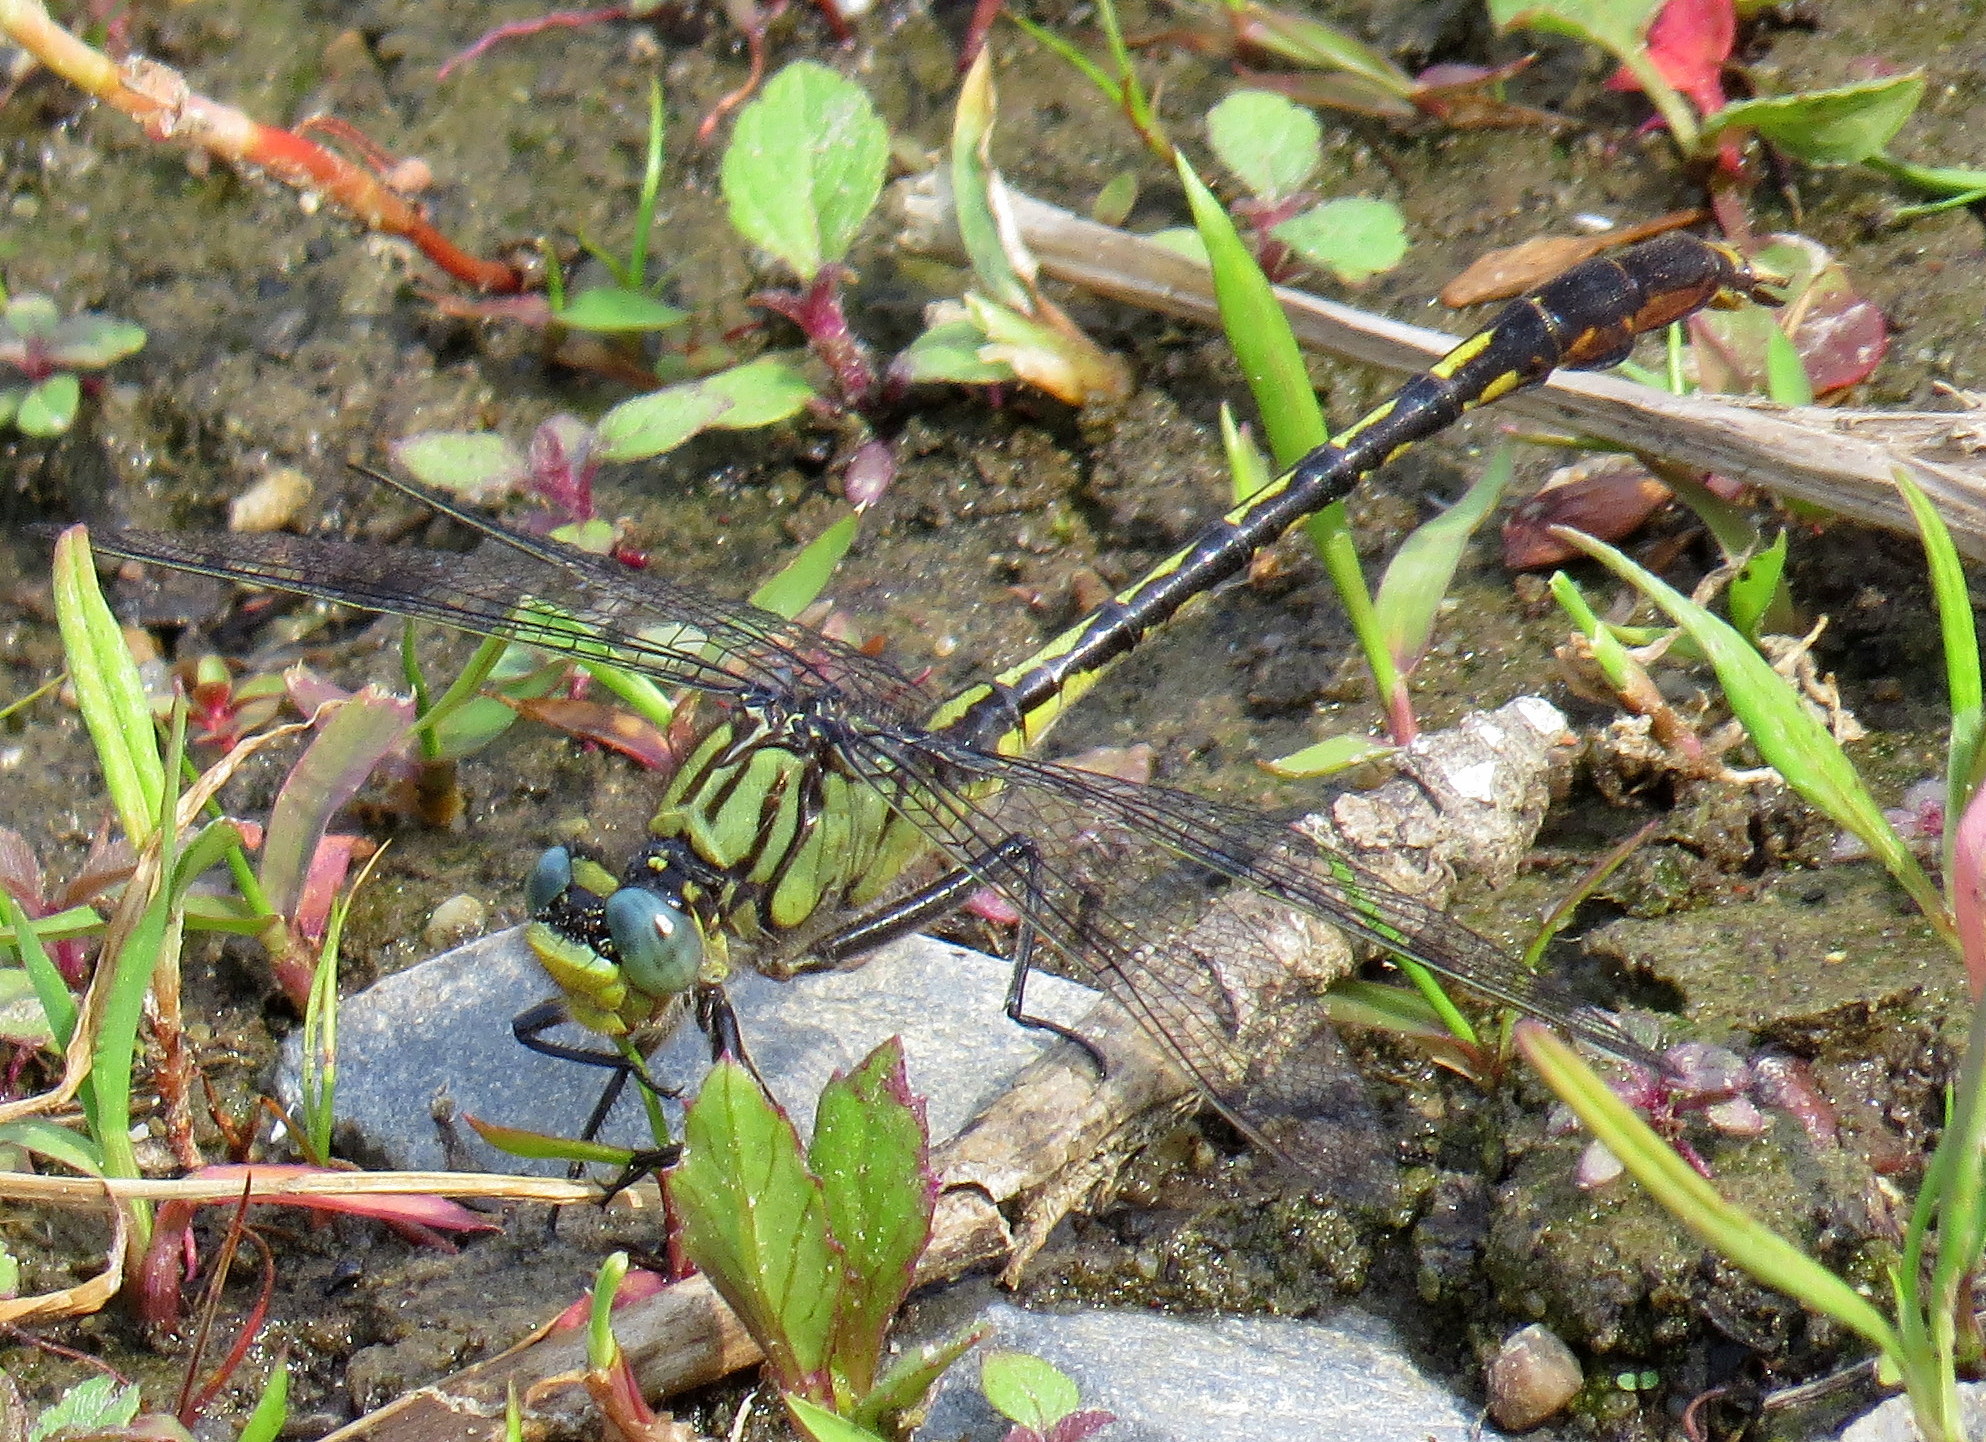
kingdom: Animalia
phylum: Arthropoda
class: Insecta
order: Odonata
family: Gomphidae
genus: Arigomphus
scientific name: Arigomphus villosipes
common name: Unicorn clubtail
